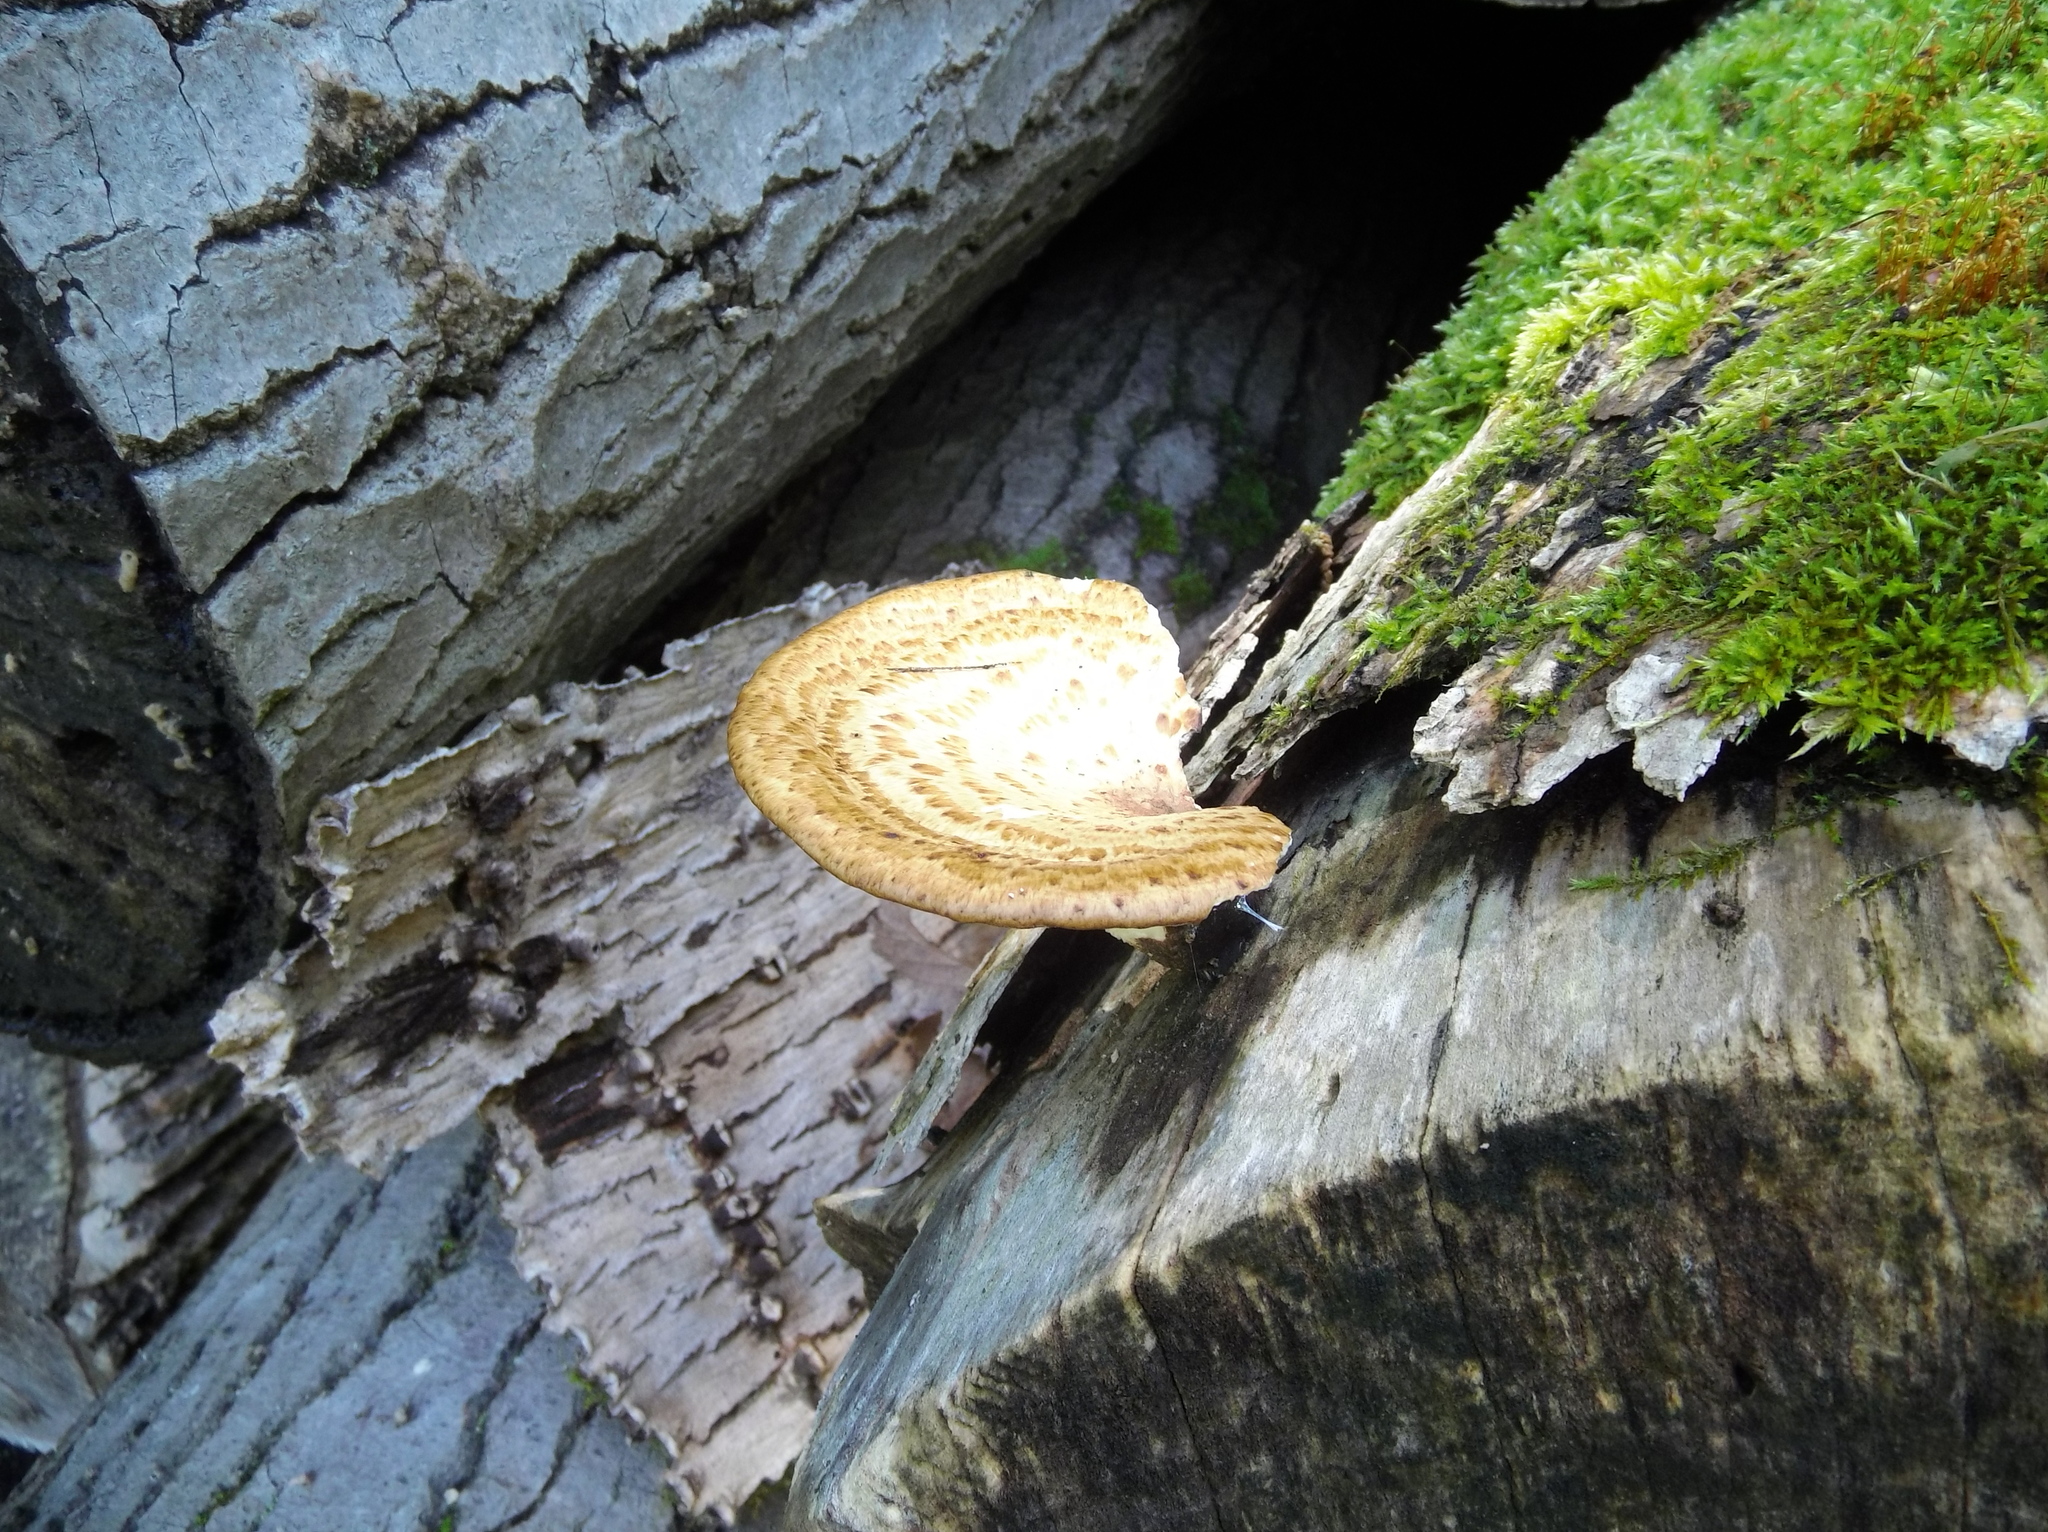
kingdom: Fungi
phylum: Basidiomycota
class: Agaricomycetes
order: Polyporales
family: Polyporaceae
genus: Cerioporus
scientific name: Cerioporus squamosus
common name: Dryad's saddle
